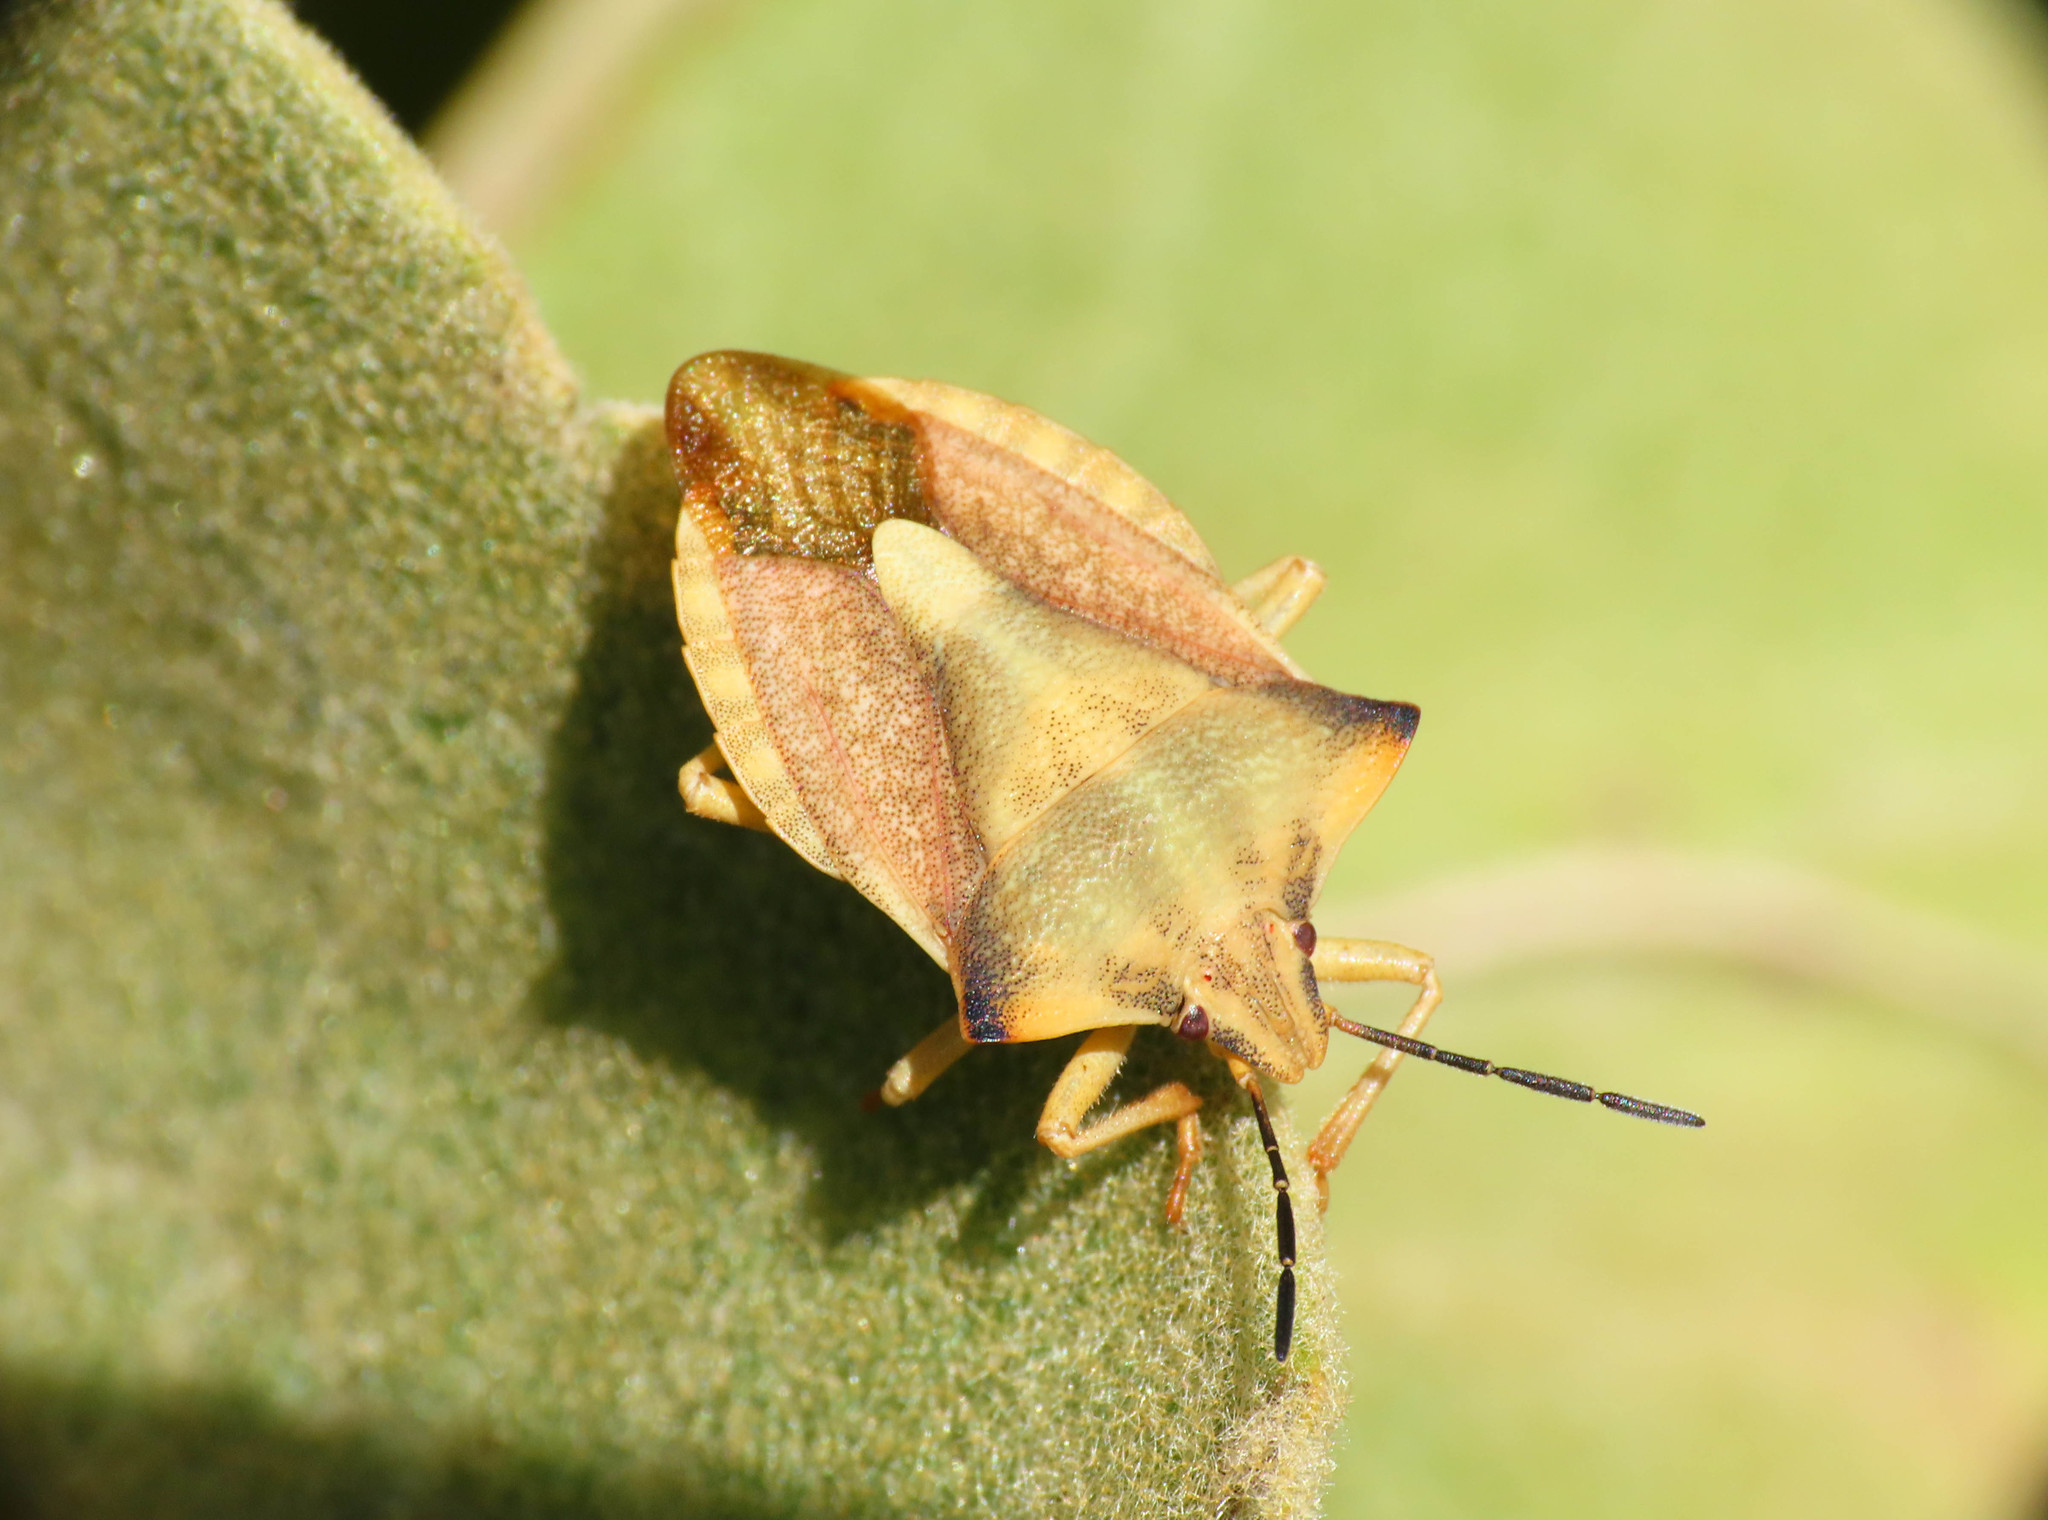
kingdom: Animalia
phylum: Arthropoda
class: Insecta
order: Hemiptera
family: Pentatomidae
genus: Carpocoris
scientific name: Carpocoris fuscispinus
